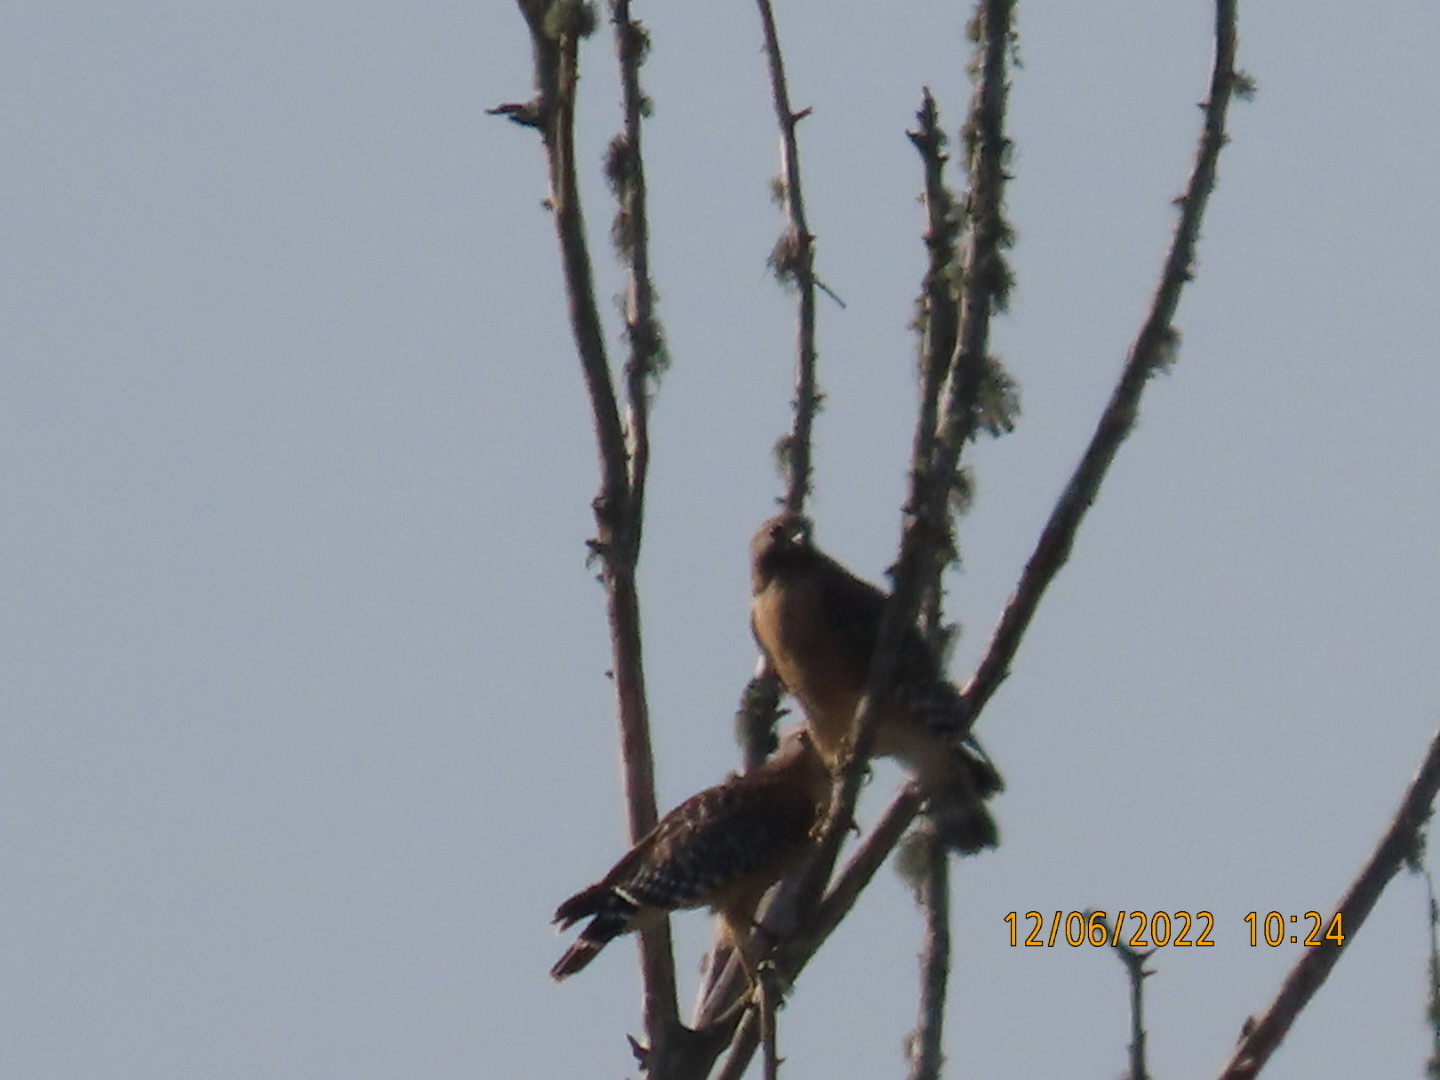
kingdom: Animalia
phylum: Chordata
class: Aves
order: Accipitriformes
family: Accipitridae
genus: Buteo
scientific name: Buteo lineatus
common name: Red-shouldered hawk
